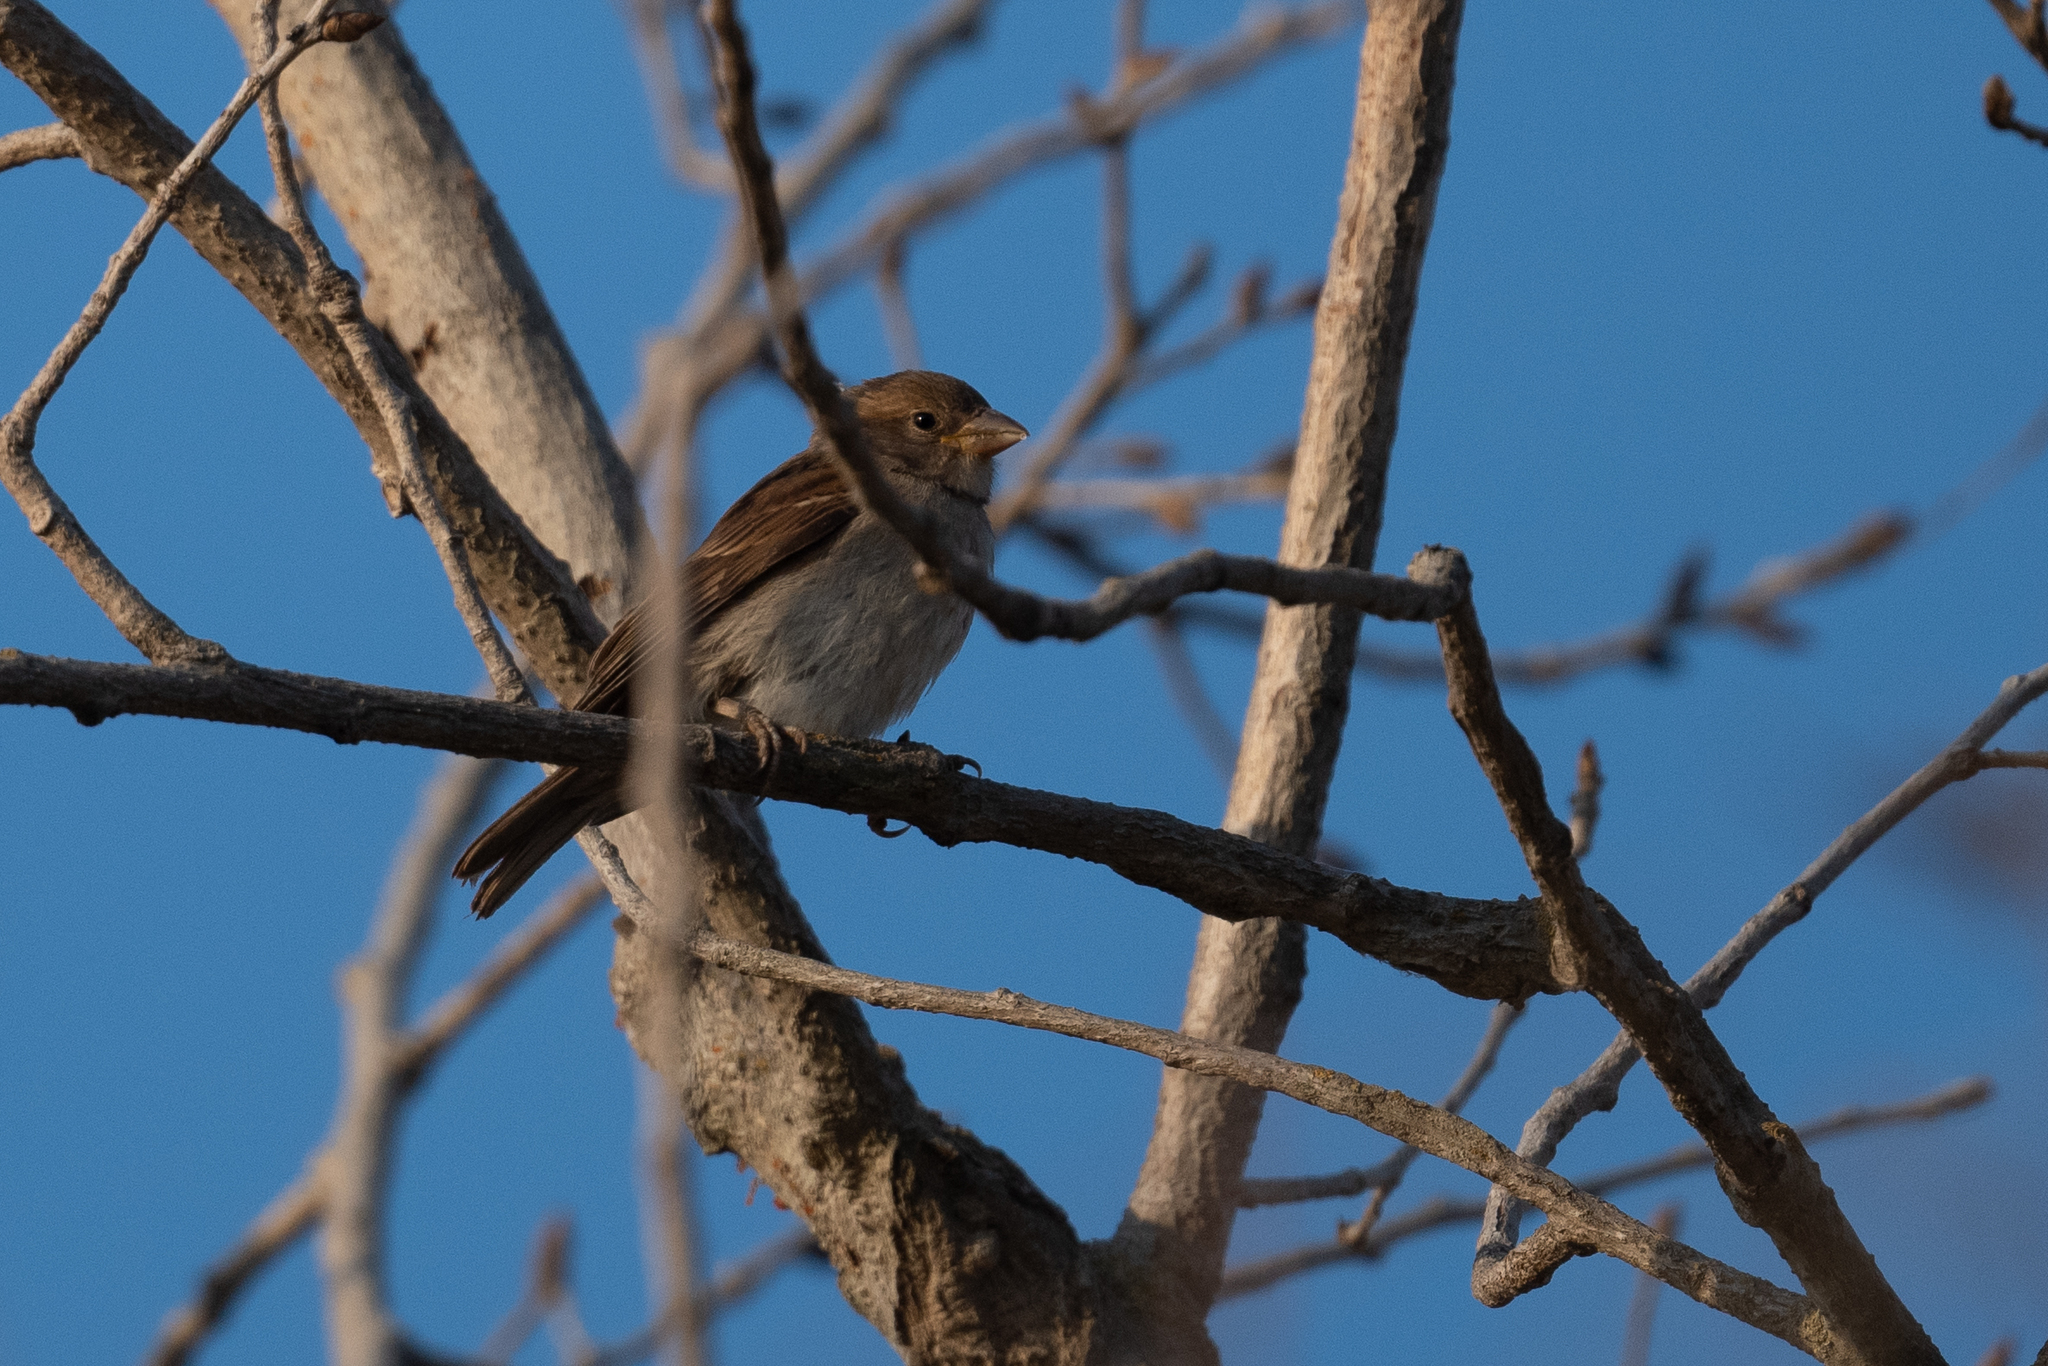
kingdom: Animalia
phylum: Chordata
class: Aves
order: Passeriformes
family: Passeridae
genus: Passer
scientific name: Passer domesticus
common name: House sparrow
